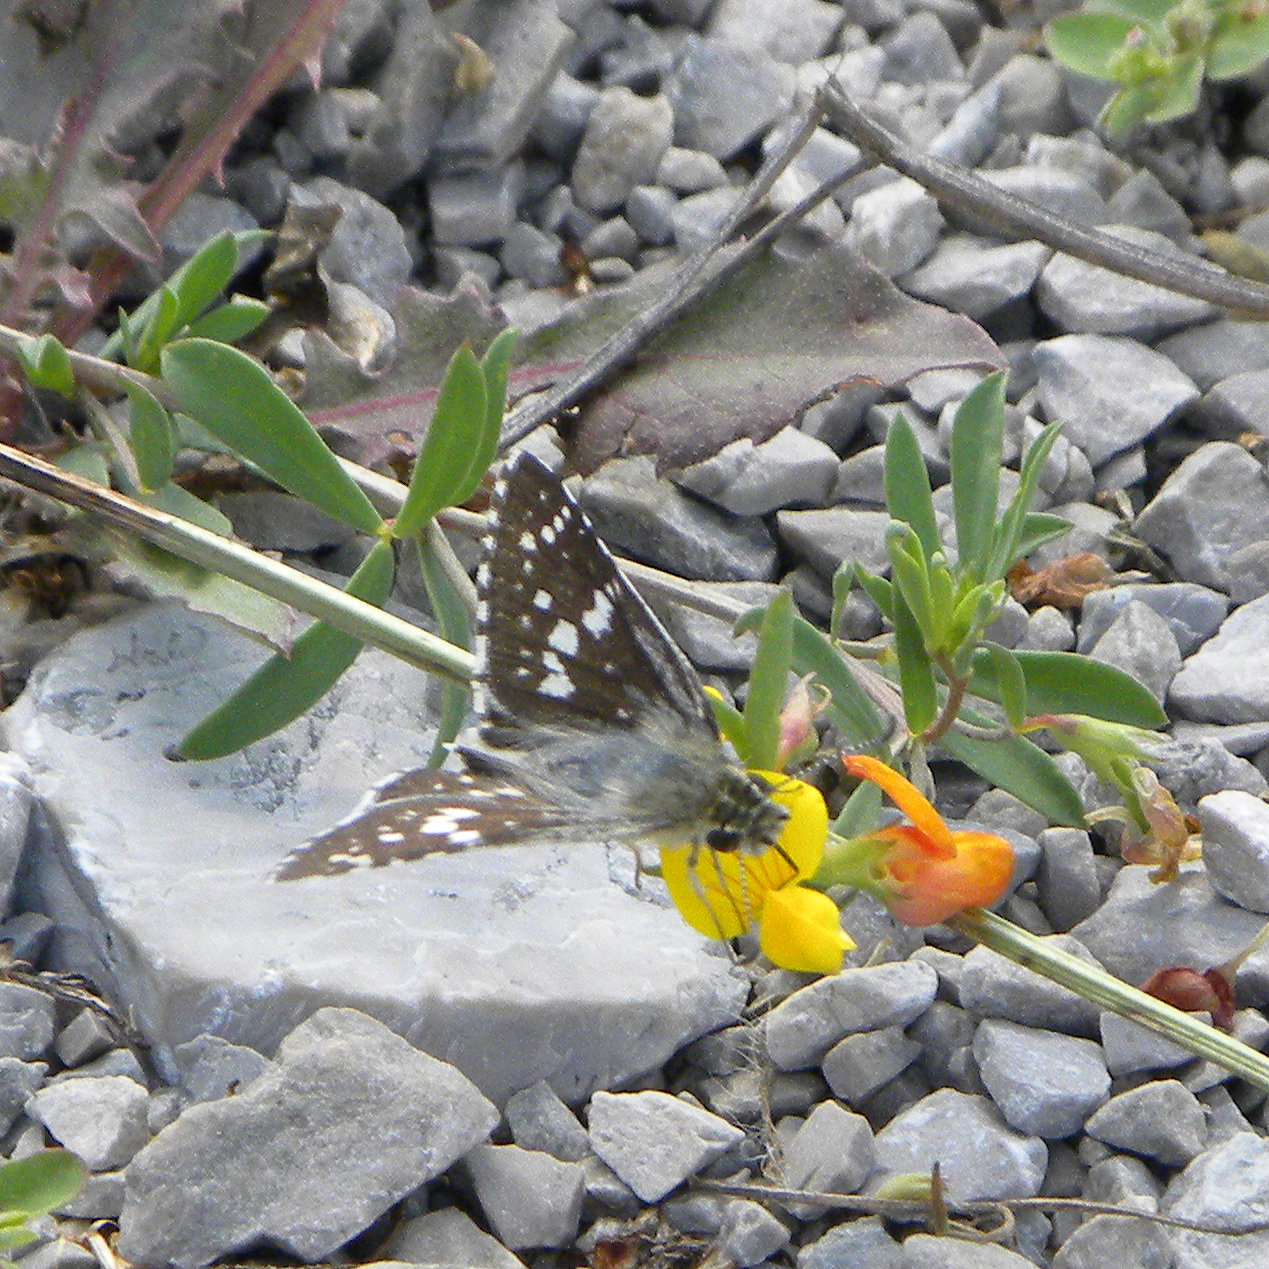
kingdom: Animalia
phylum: Arthropoda
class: Insecta
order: Lepidoptera
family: Hesperiidae
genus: Burnsius
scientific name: Burnsius communis
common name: Common checkered-skipper
